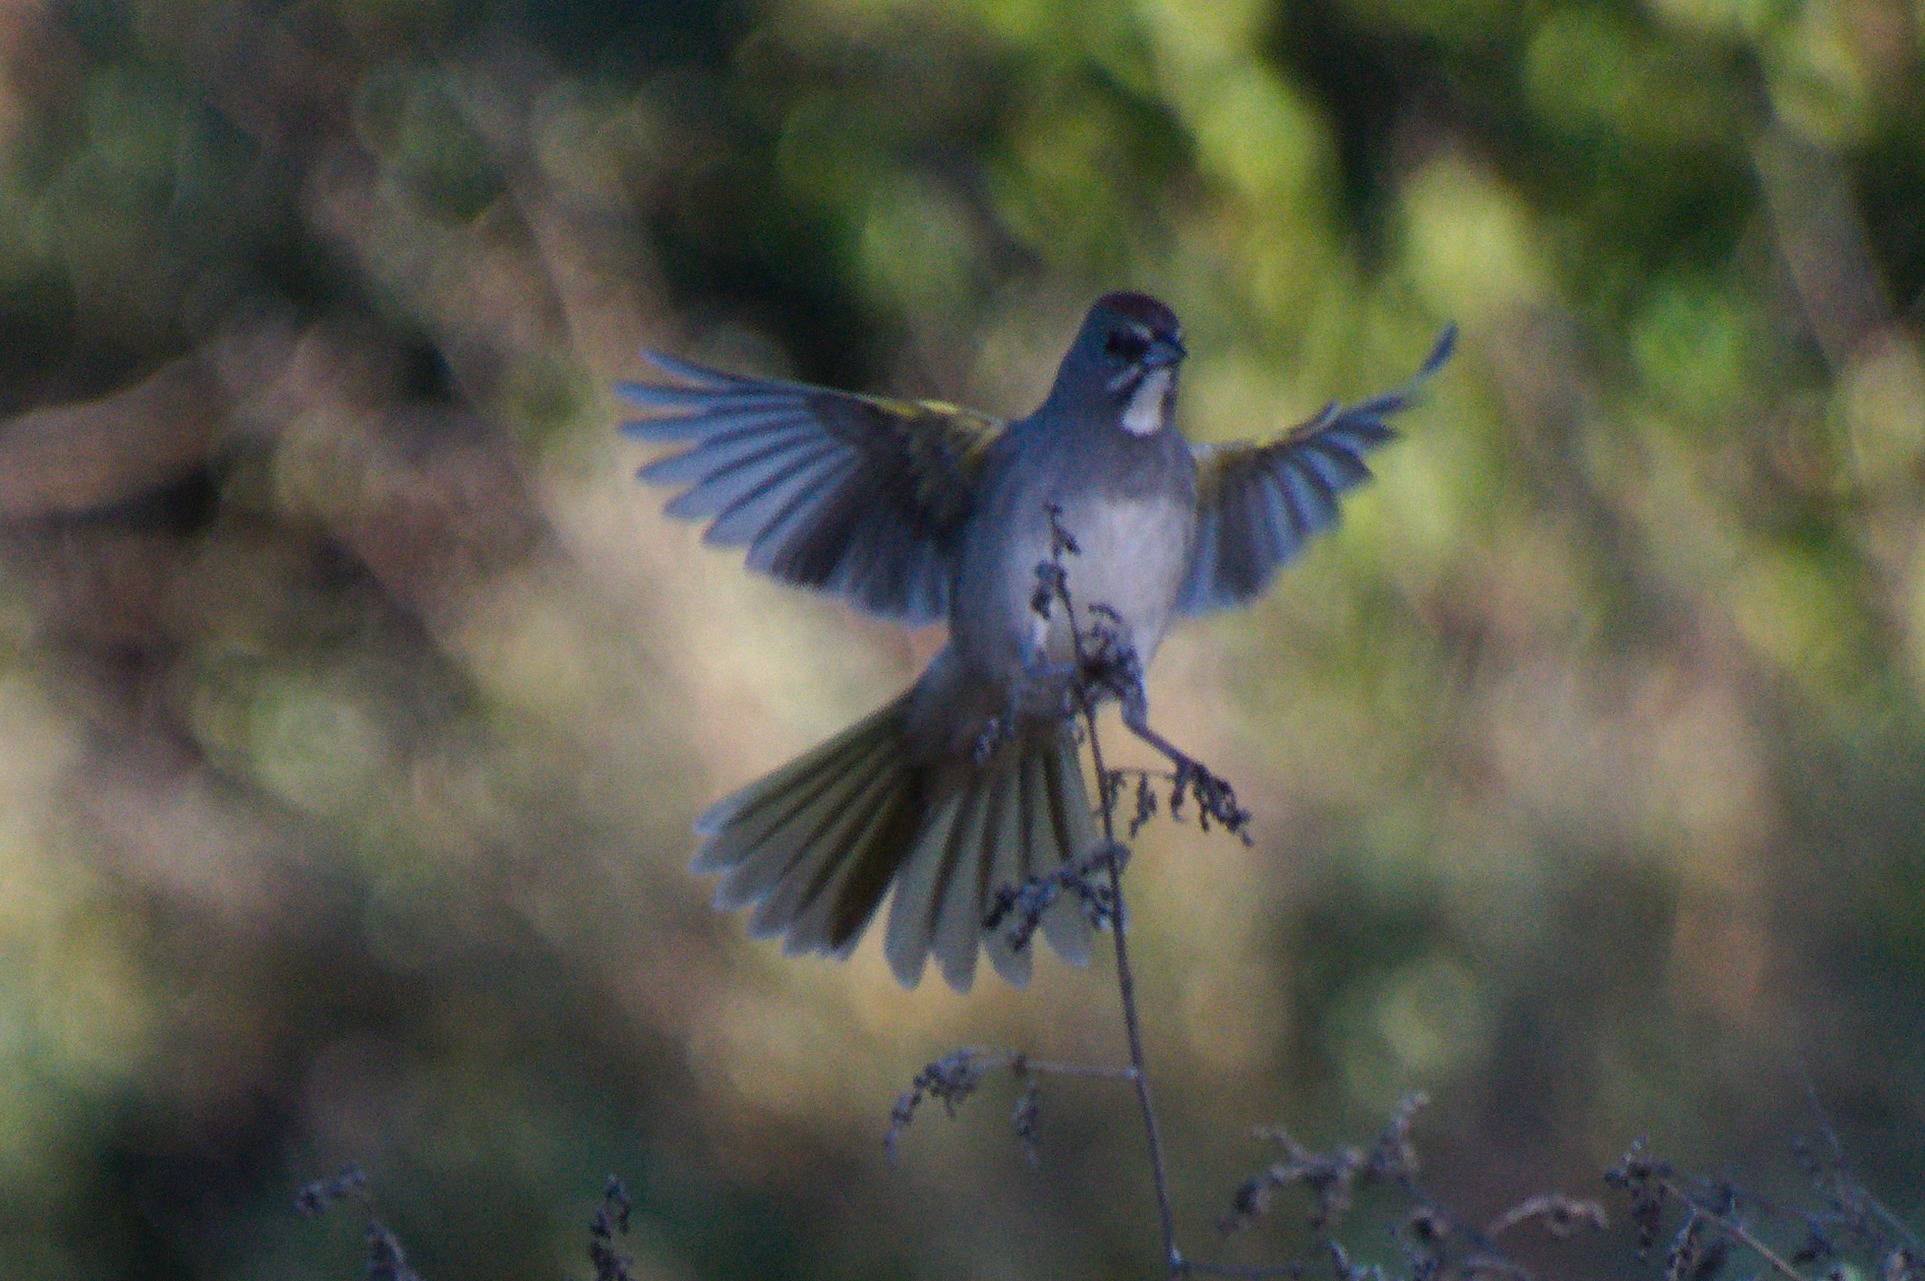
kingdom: Animalia
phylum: Chordata
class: Aves
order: Passeriformes
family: Passerellidae
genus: Pipilo
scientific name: Pipilo chlorurus
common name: Green-tailed towhee
